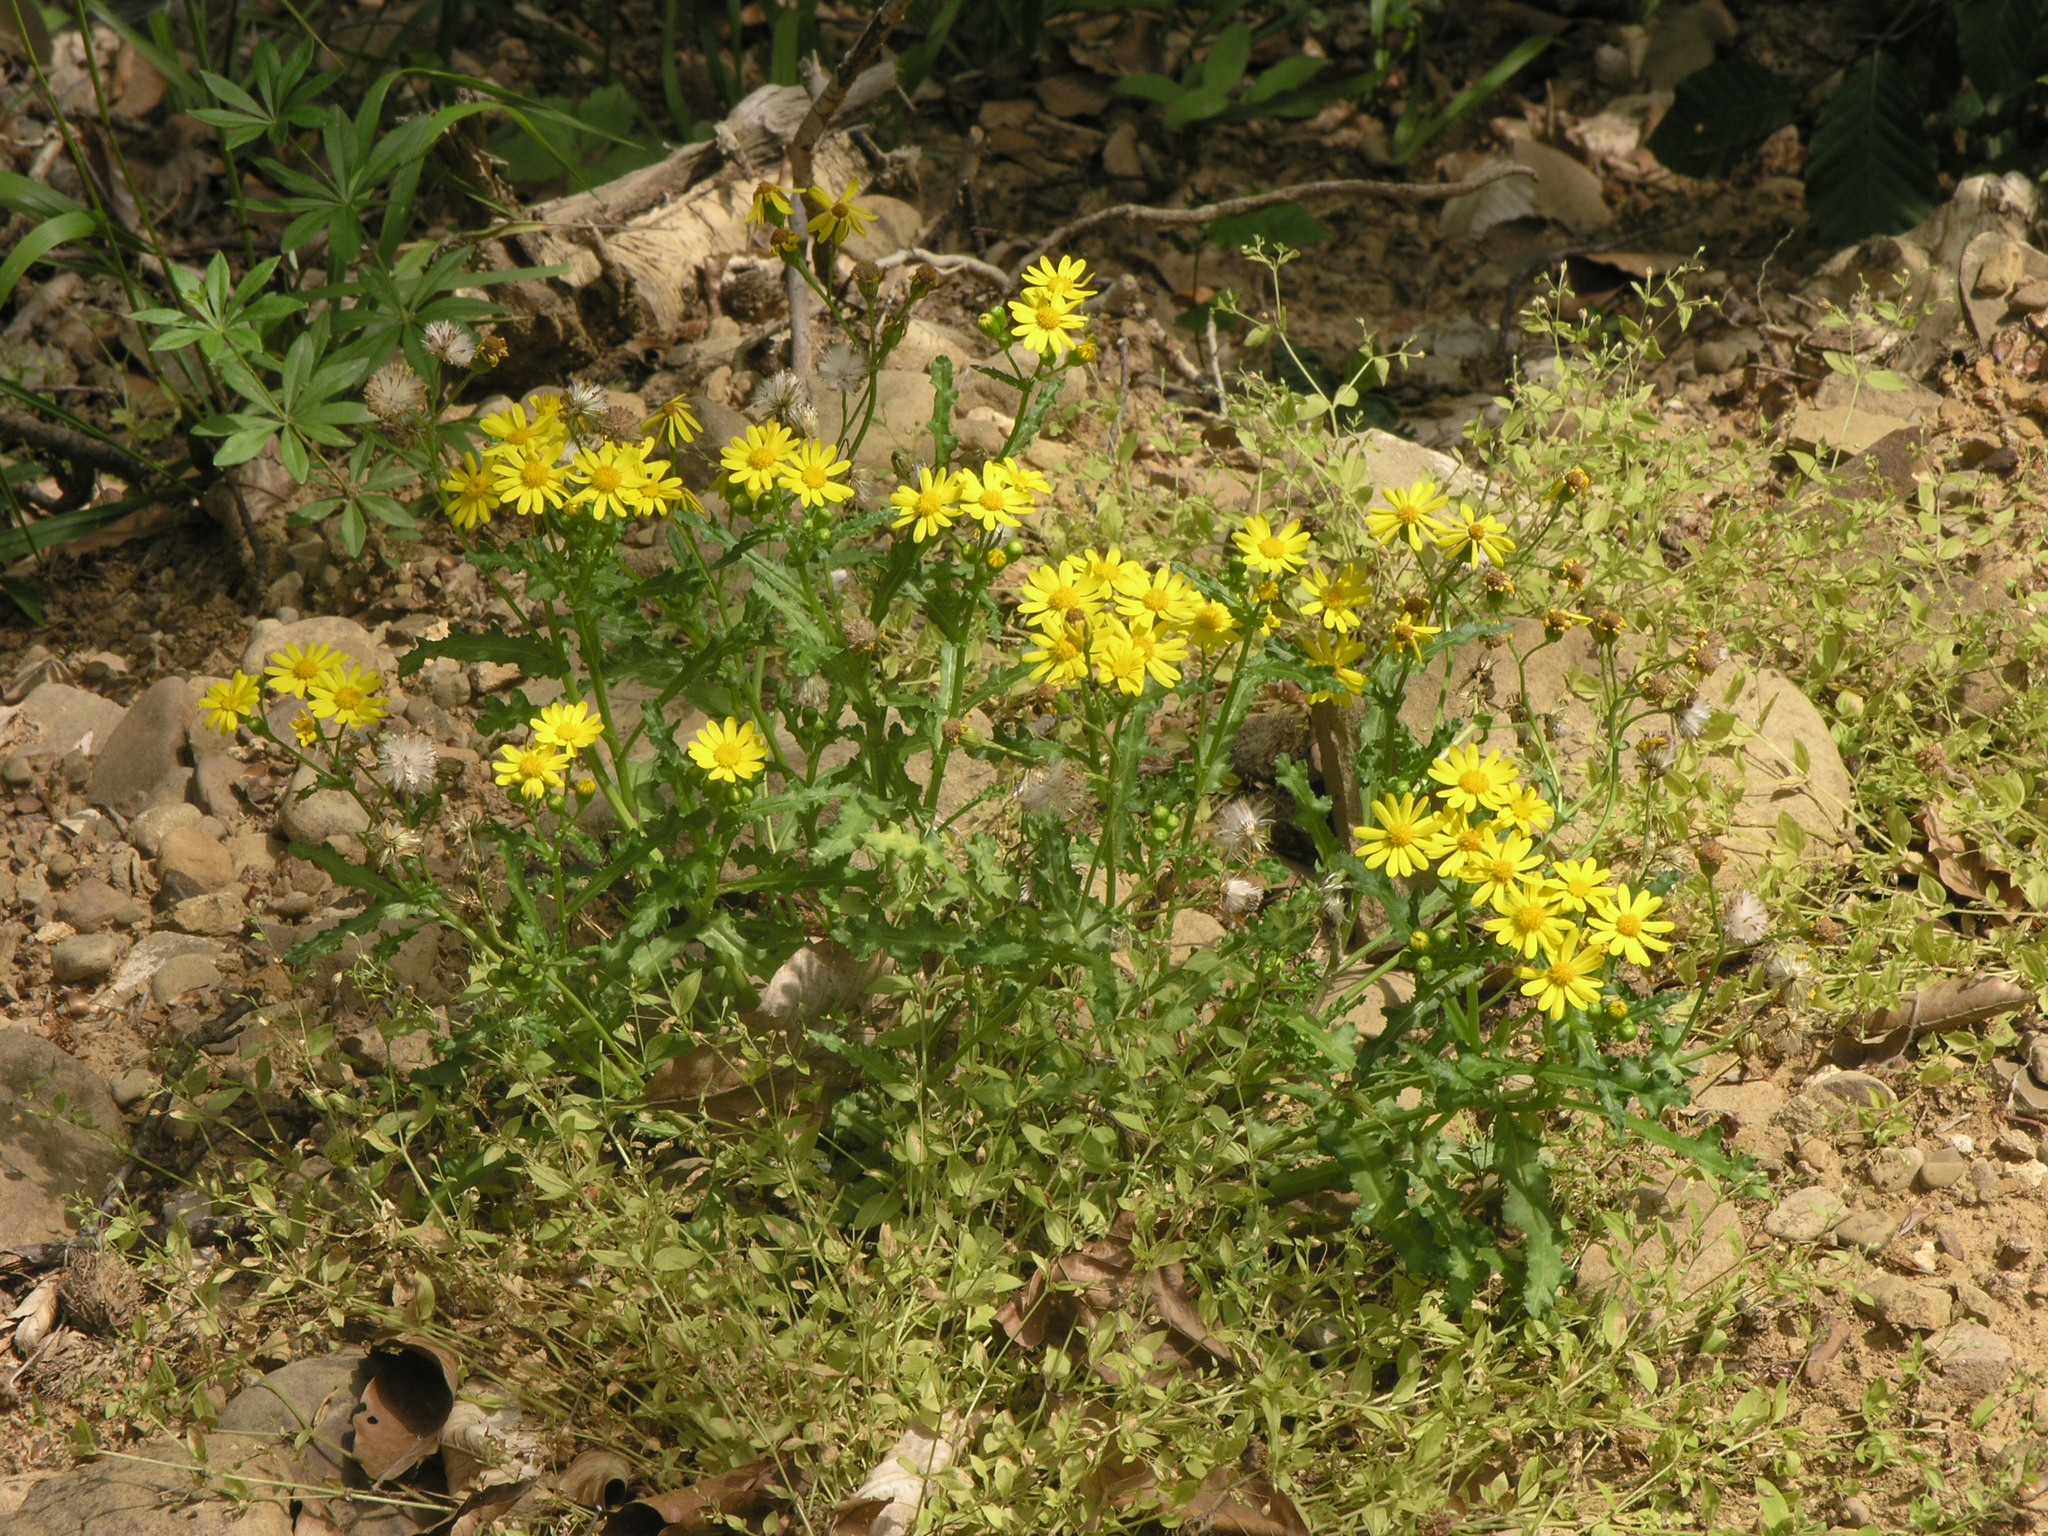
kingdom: Plantae
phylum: Tracheophyta
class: Magnoliopsida
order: Asterales
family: Asteraceae
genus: Senecio
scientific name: Senecio vernalis
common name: Eastern groundsel
